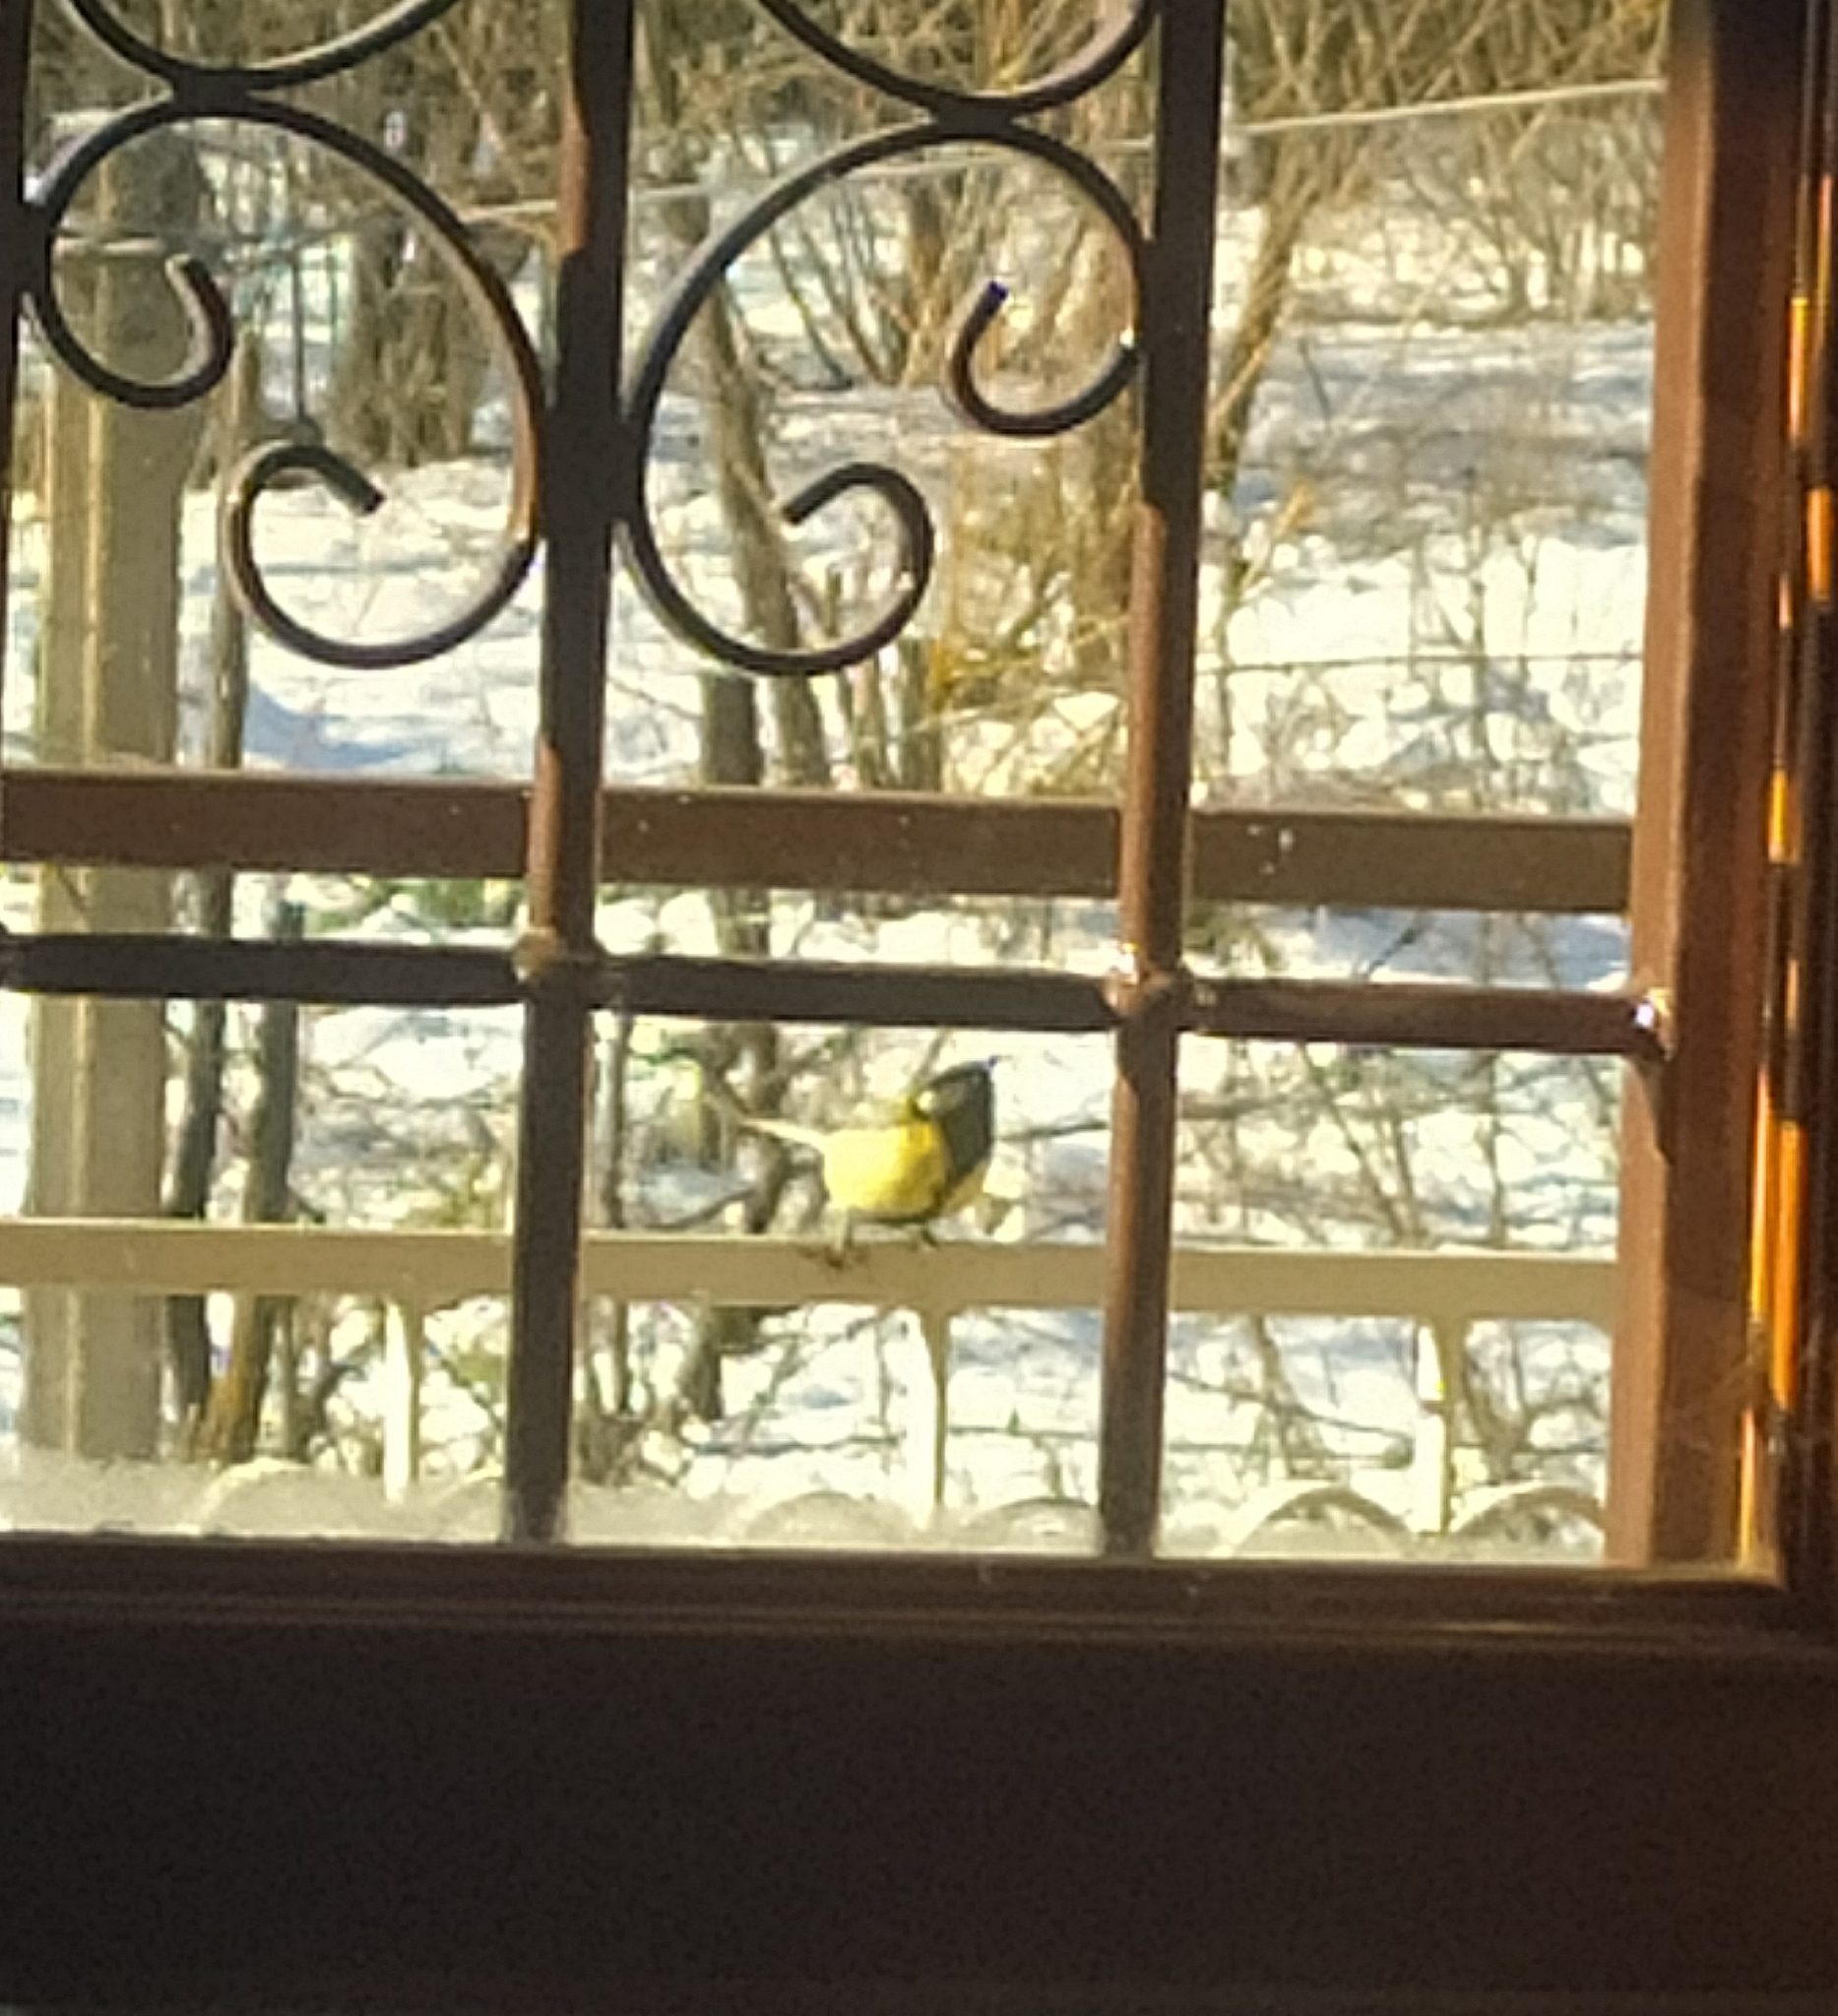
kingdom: Animalia
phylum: Chordata
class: Aves
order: Passeriformes
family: Paridae
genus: Parus
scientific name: Parus major
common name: Great tit
